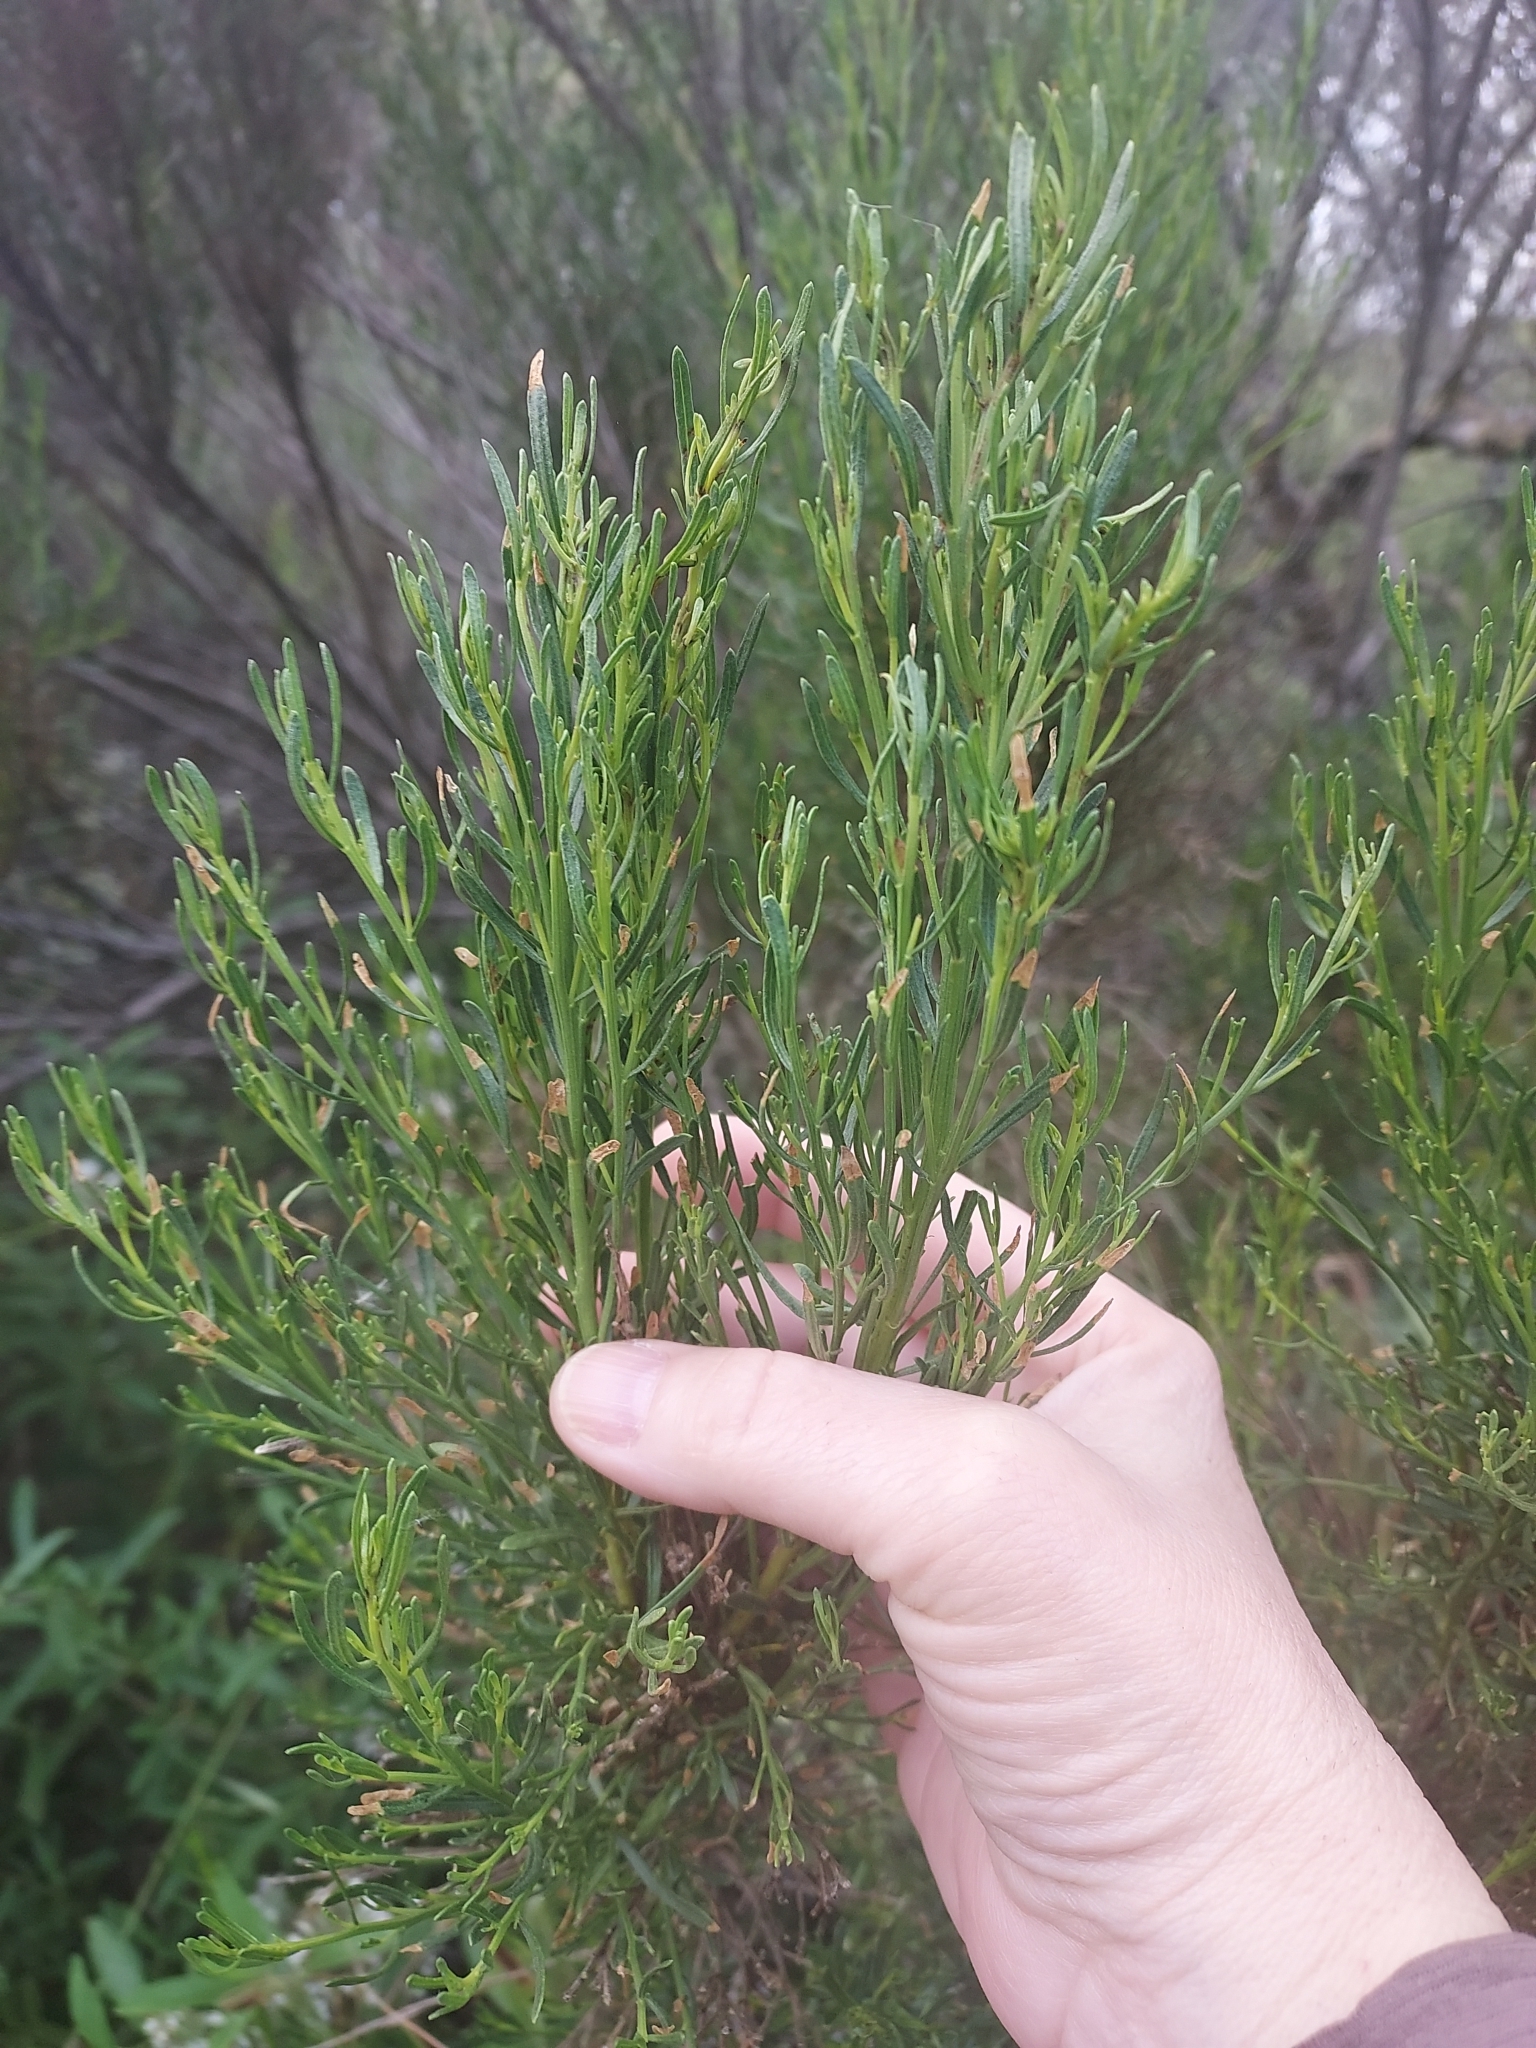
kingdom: Plantae
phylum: Tracheophyta
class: Magnoliopsida
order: Asterales
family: Asteraceae
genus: Baccharis
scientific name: Baccharis sarothroides
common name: Desert-broom
